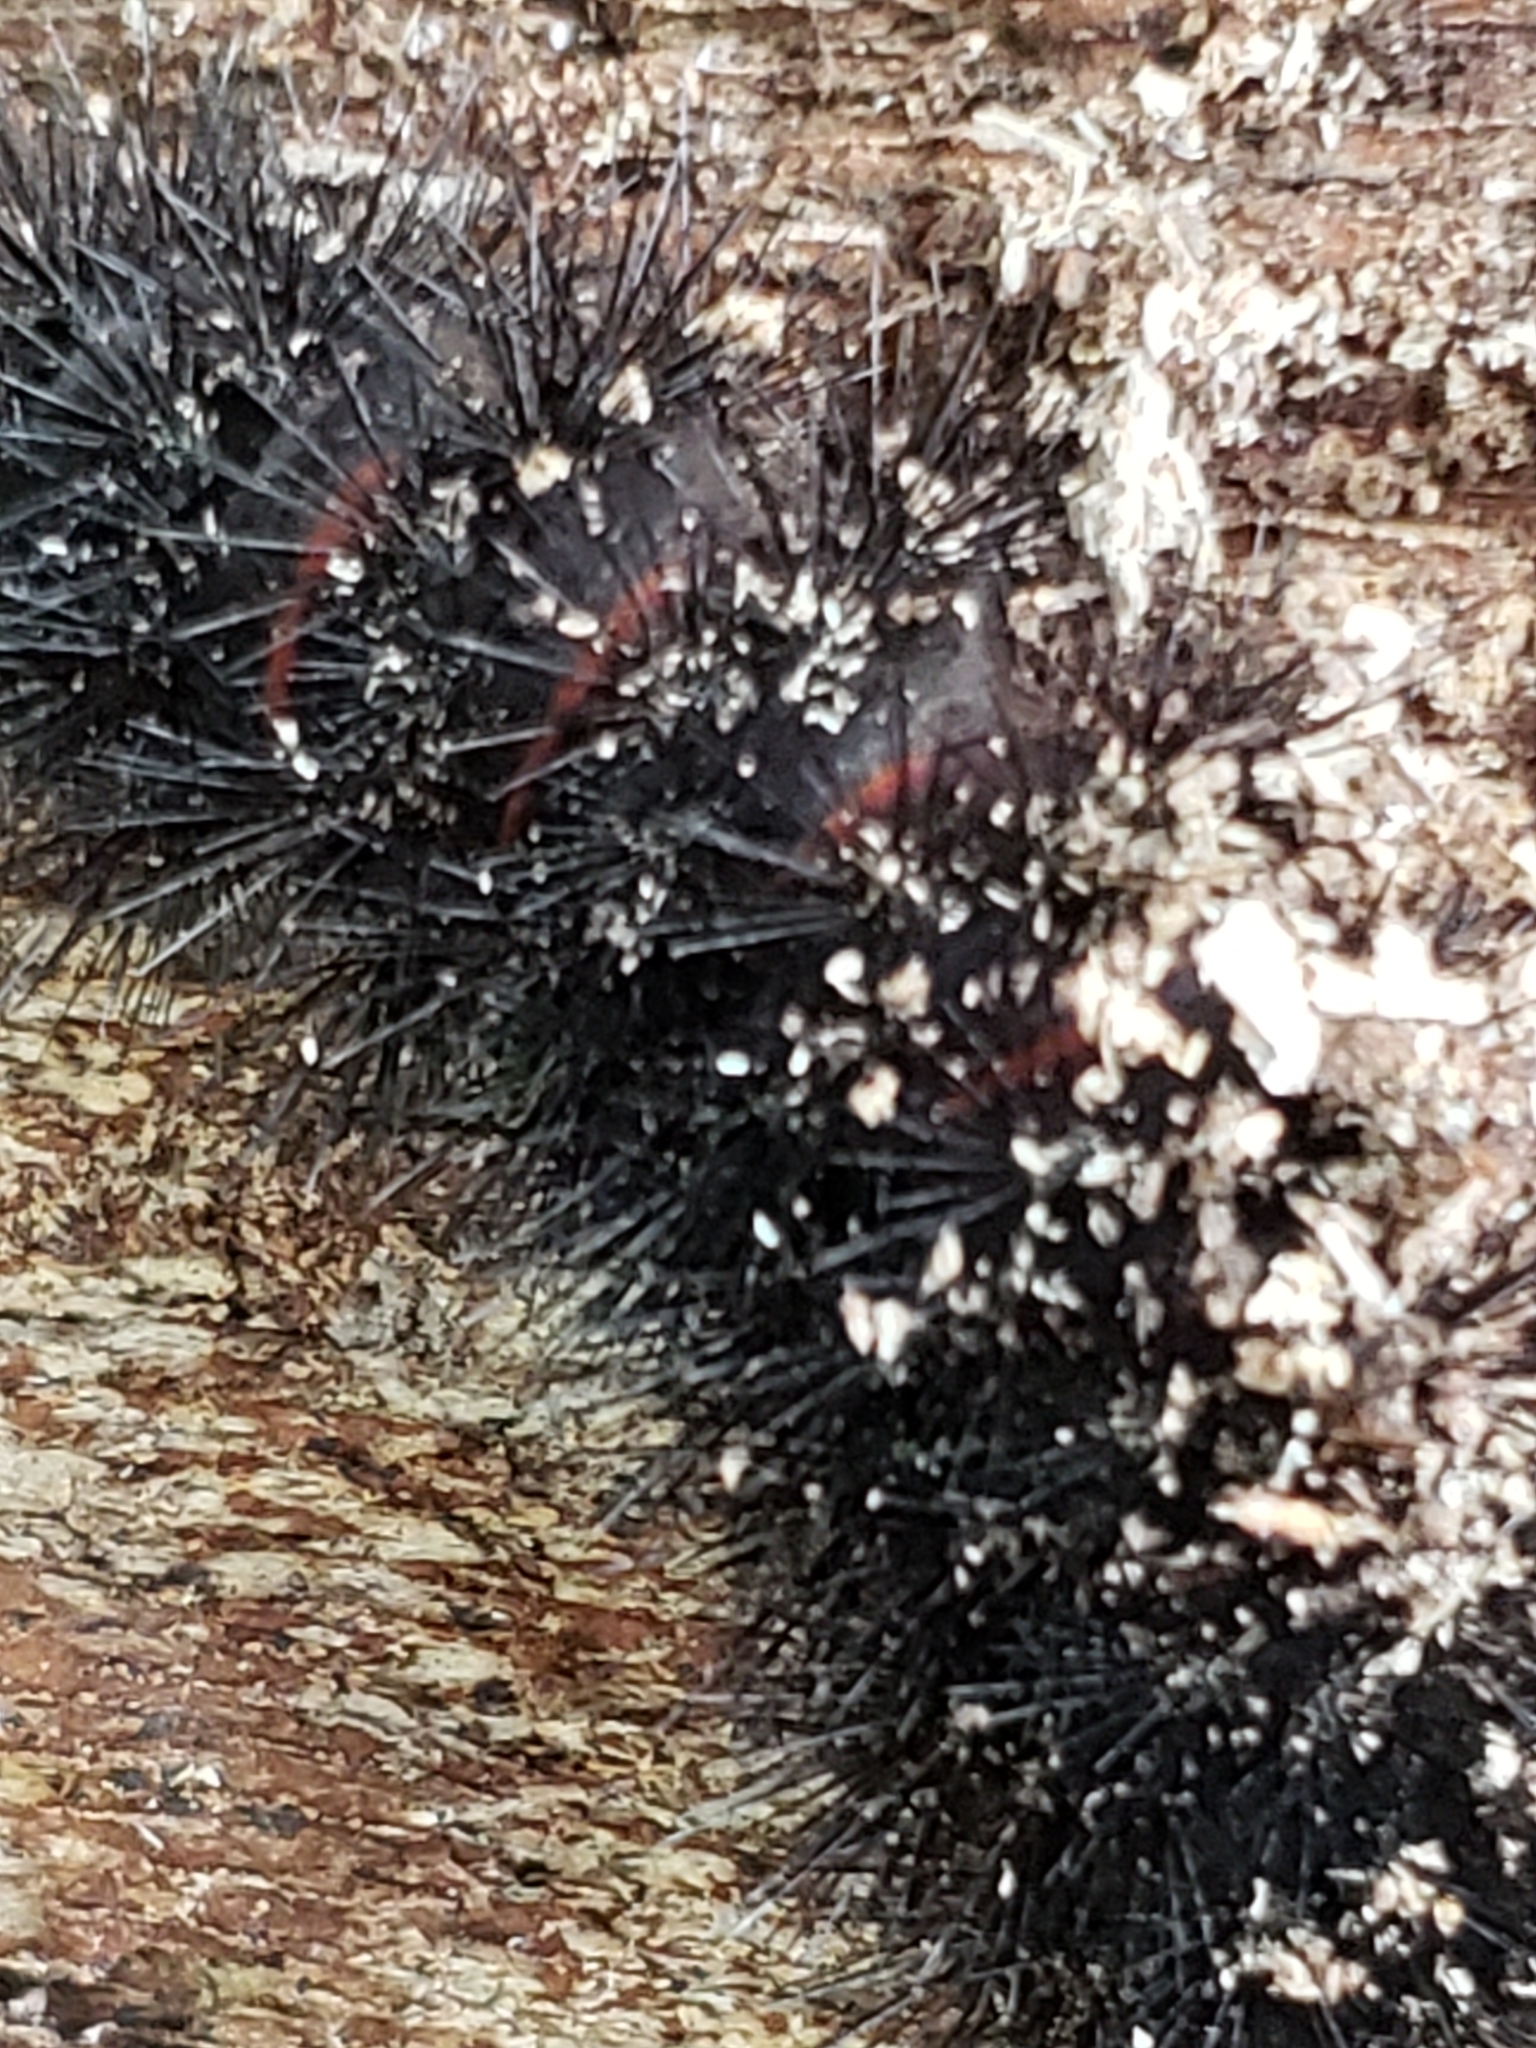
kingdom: Animalia
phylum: Arthropoda
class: Insecta
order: Lepidoptera
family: Erebidae
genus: Hypercompe
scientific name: Hypercompe scribonia
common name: Giant leopard moth
